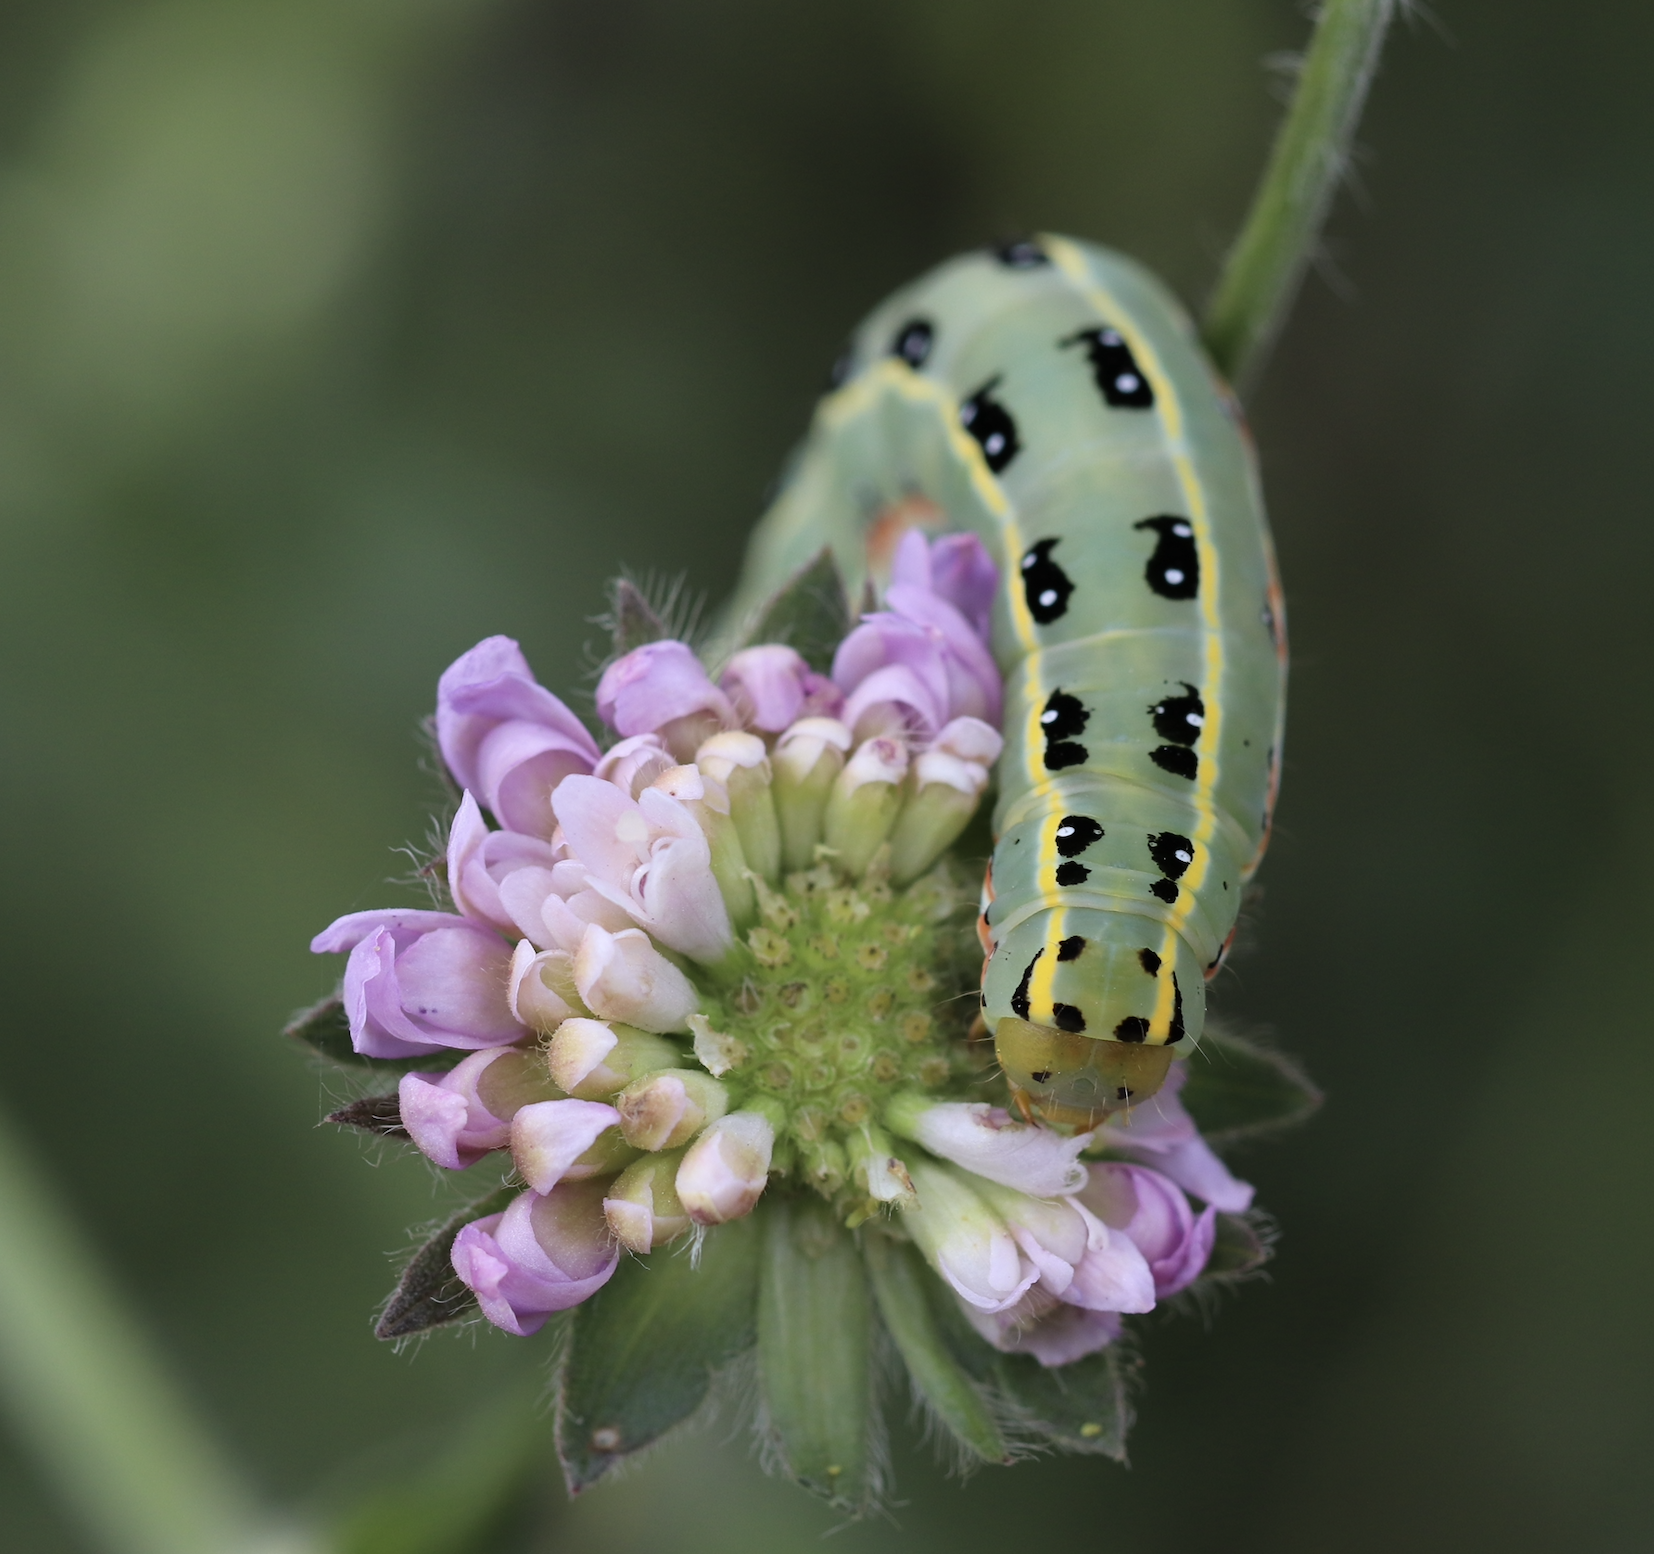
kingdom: Animalia
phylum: Arthropoda
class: Insecta
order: Lepidoptera
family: Noctuidae
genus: Xylena
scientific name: Xylena exsoleta
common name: Sword-grass
